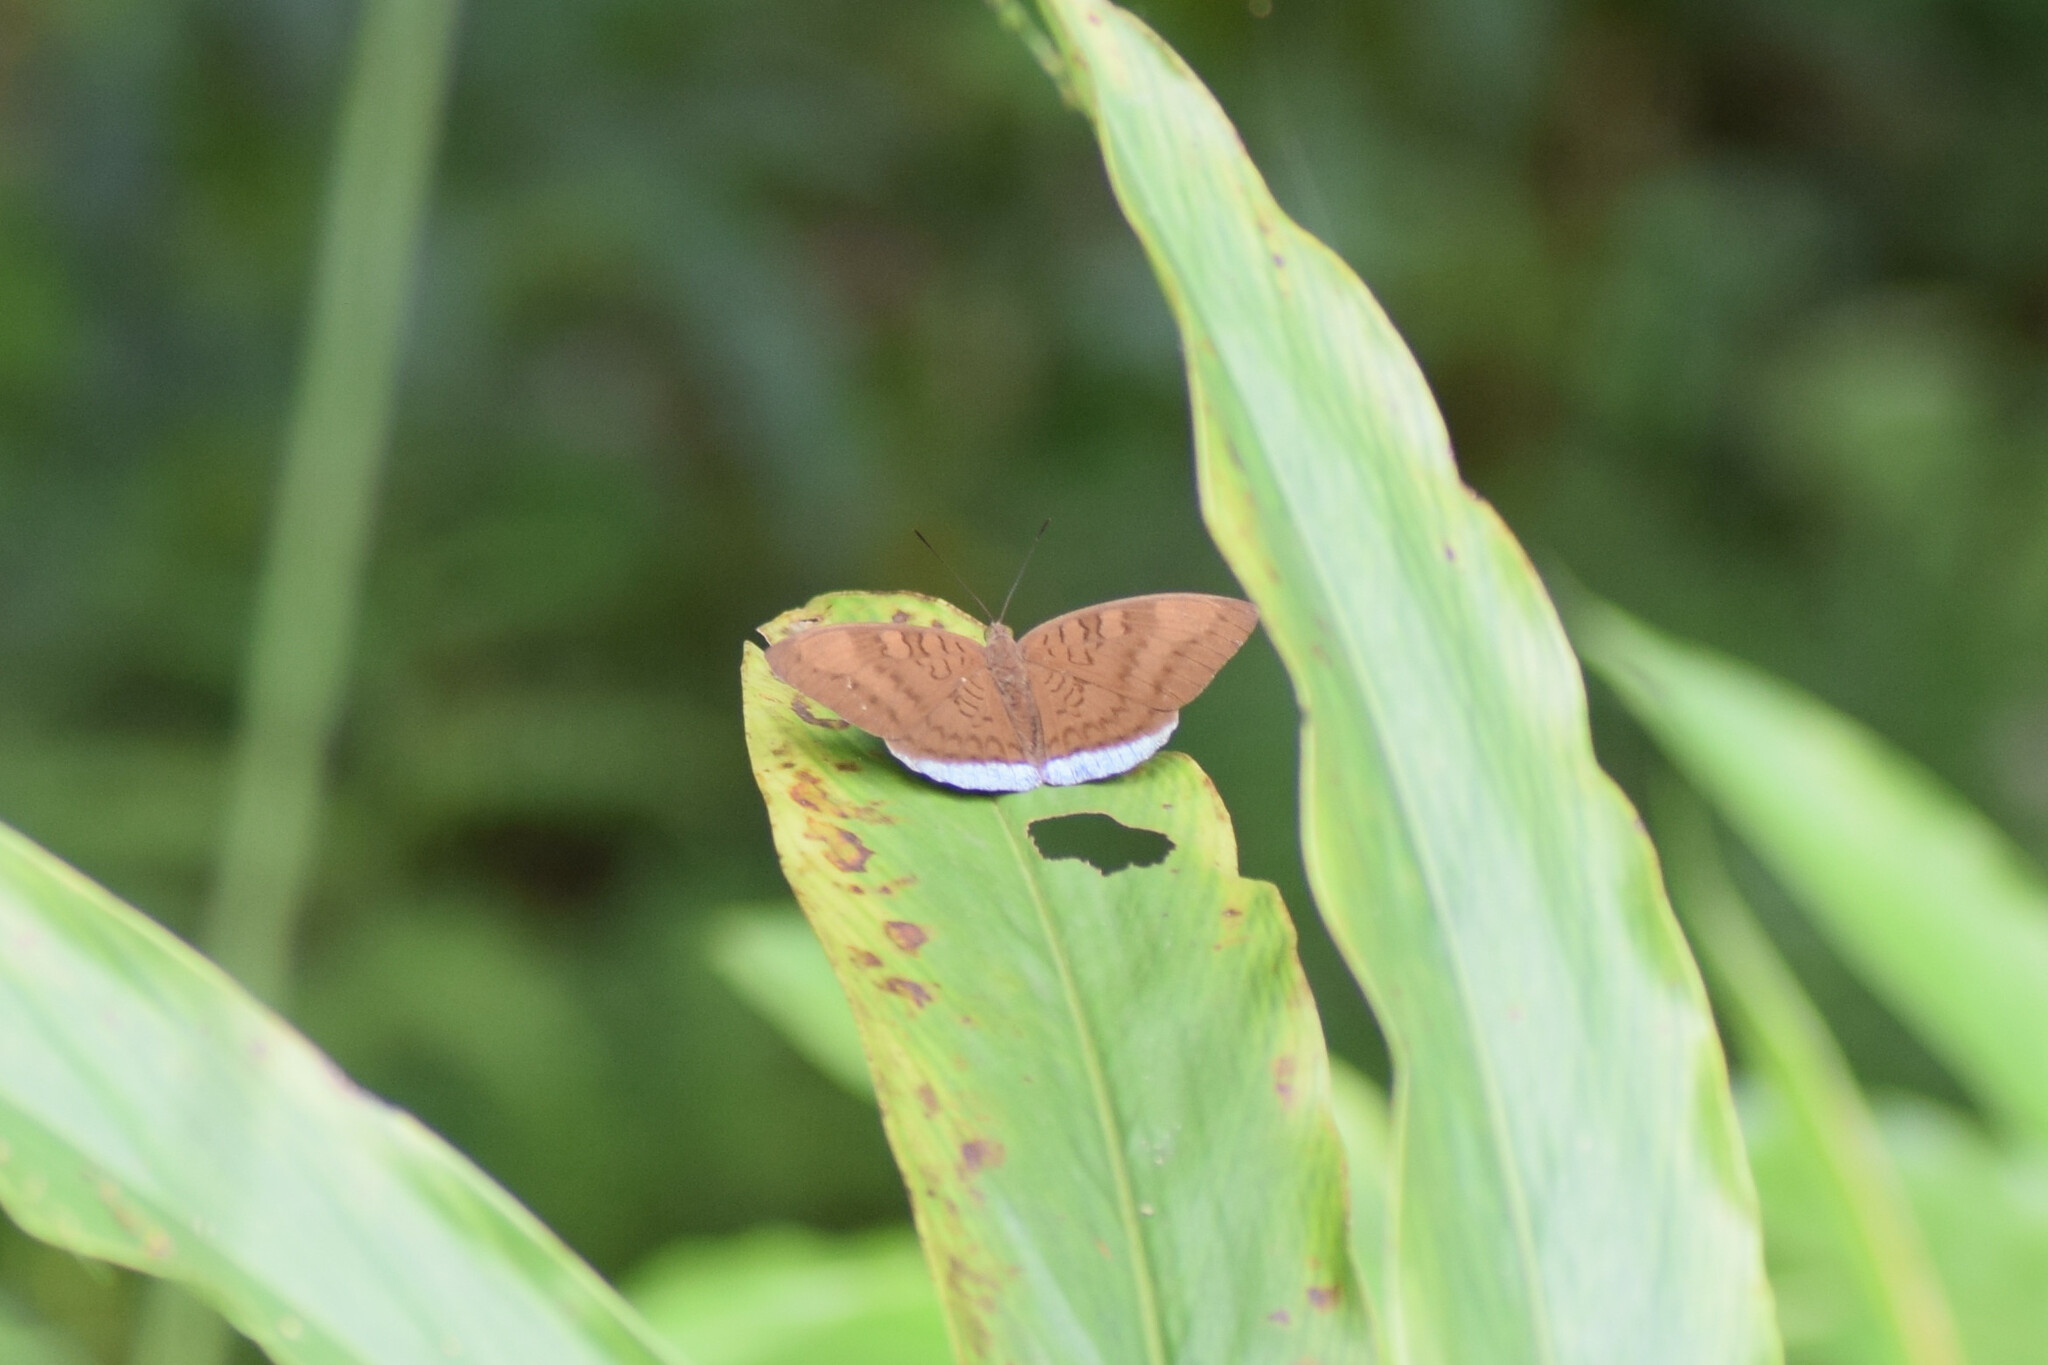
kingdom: Animalia
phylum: Arthropoda
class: Insecta
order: Lepidoptera
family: Nymphalidae
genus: Tanaecia
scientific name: Tanaecia julii
